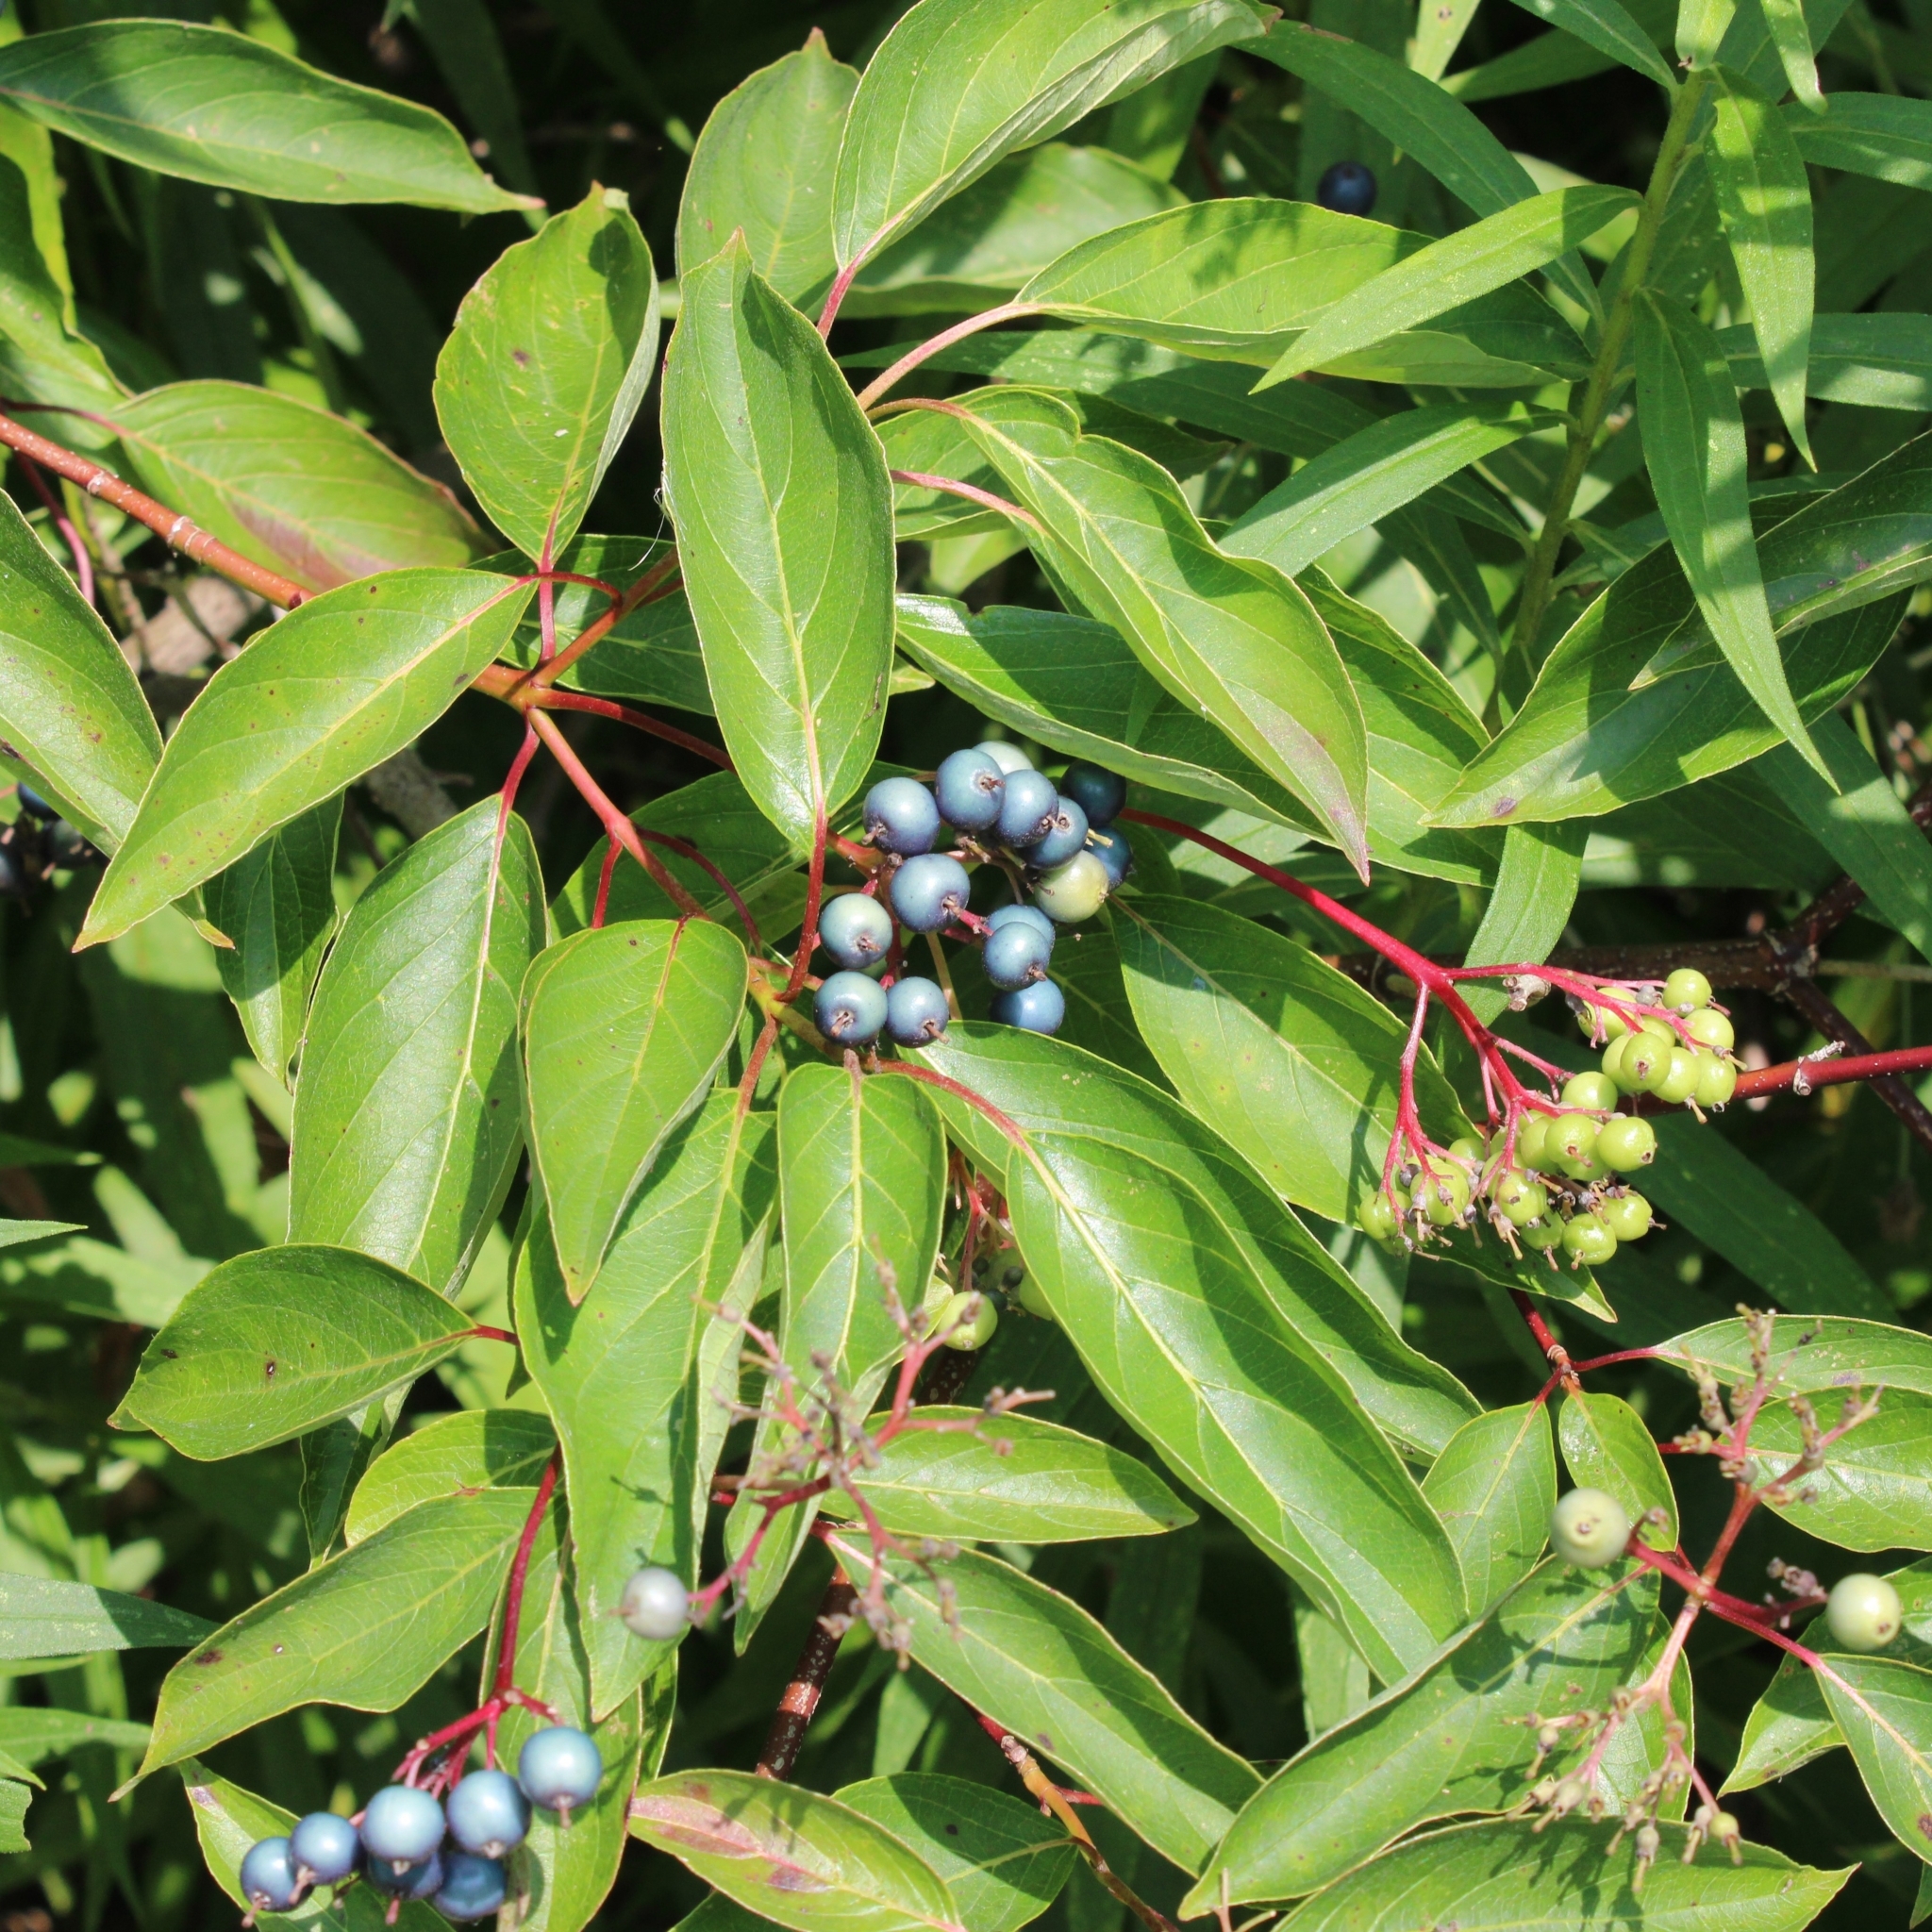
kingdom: Plantae
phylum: Tracheophyta
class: Magnoliopsida
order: Cornales
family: Cornaceae
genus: Cornus
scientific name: Cornus amomum
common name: Silky dogwood
